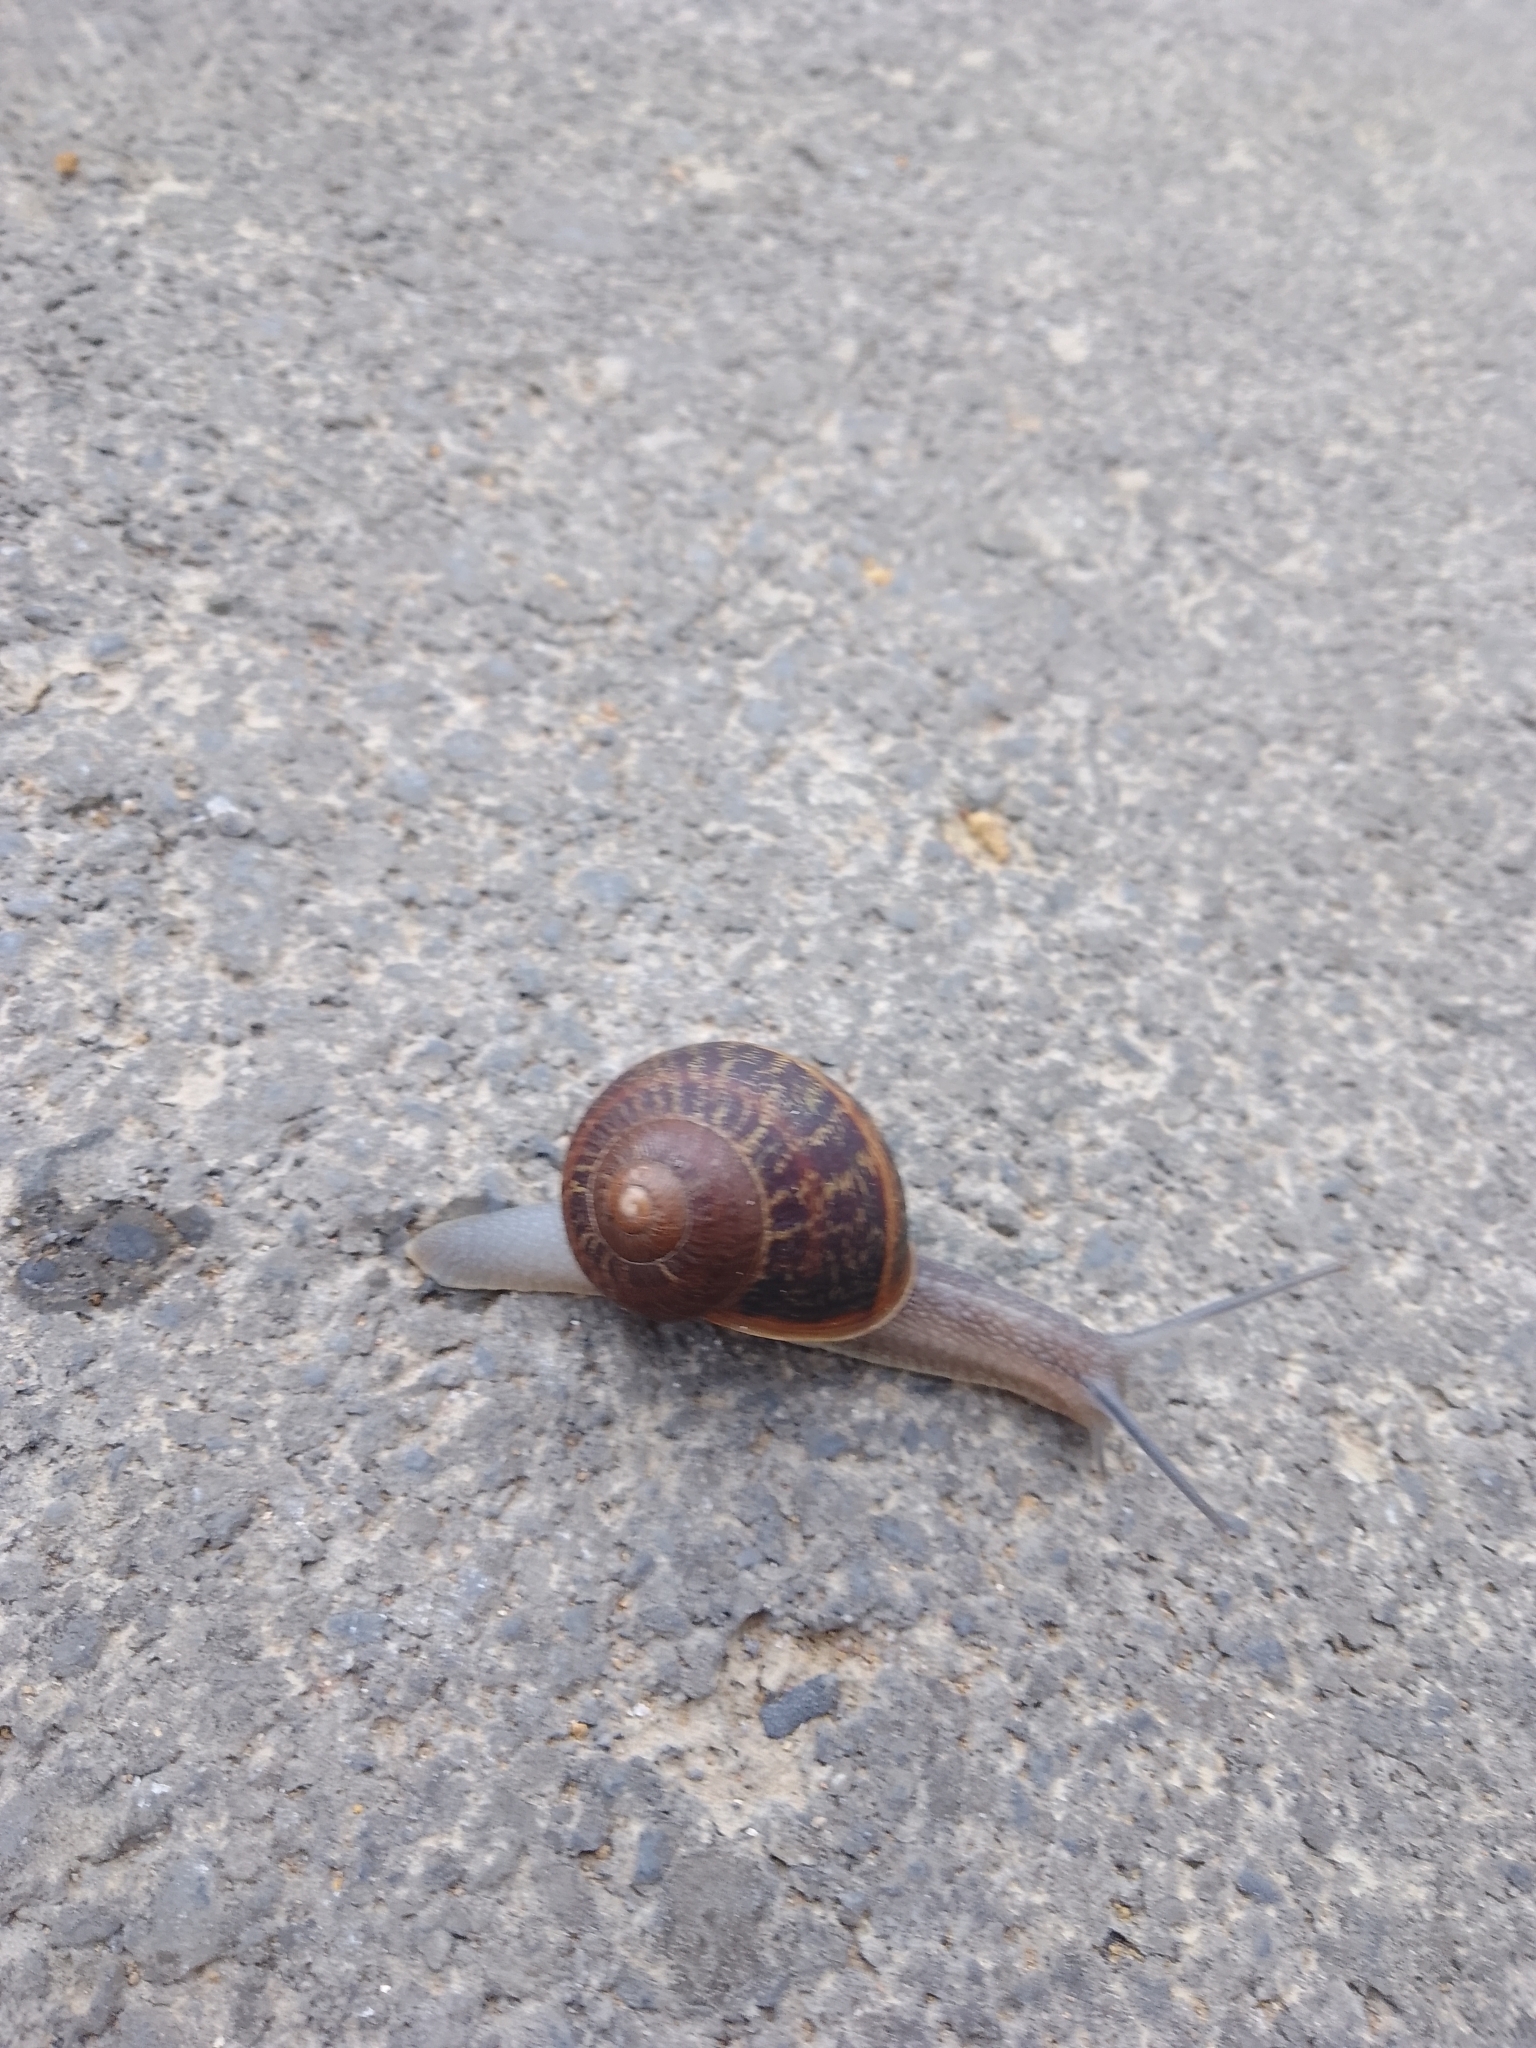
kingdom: Animalia
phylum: Mollusca
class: Gastropoda
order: Stylommatophora
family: Helicidae
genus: Cornu
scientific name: Cornu aspersum
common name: Brown garden snail
